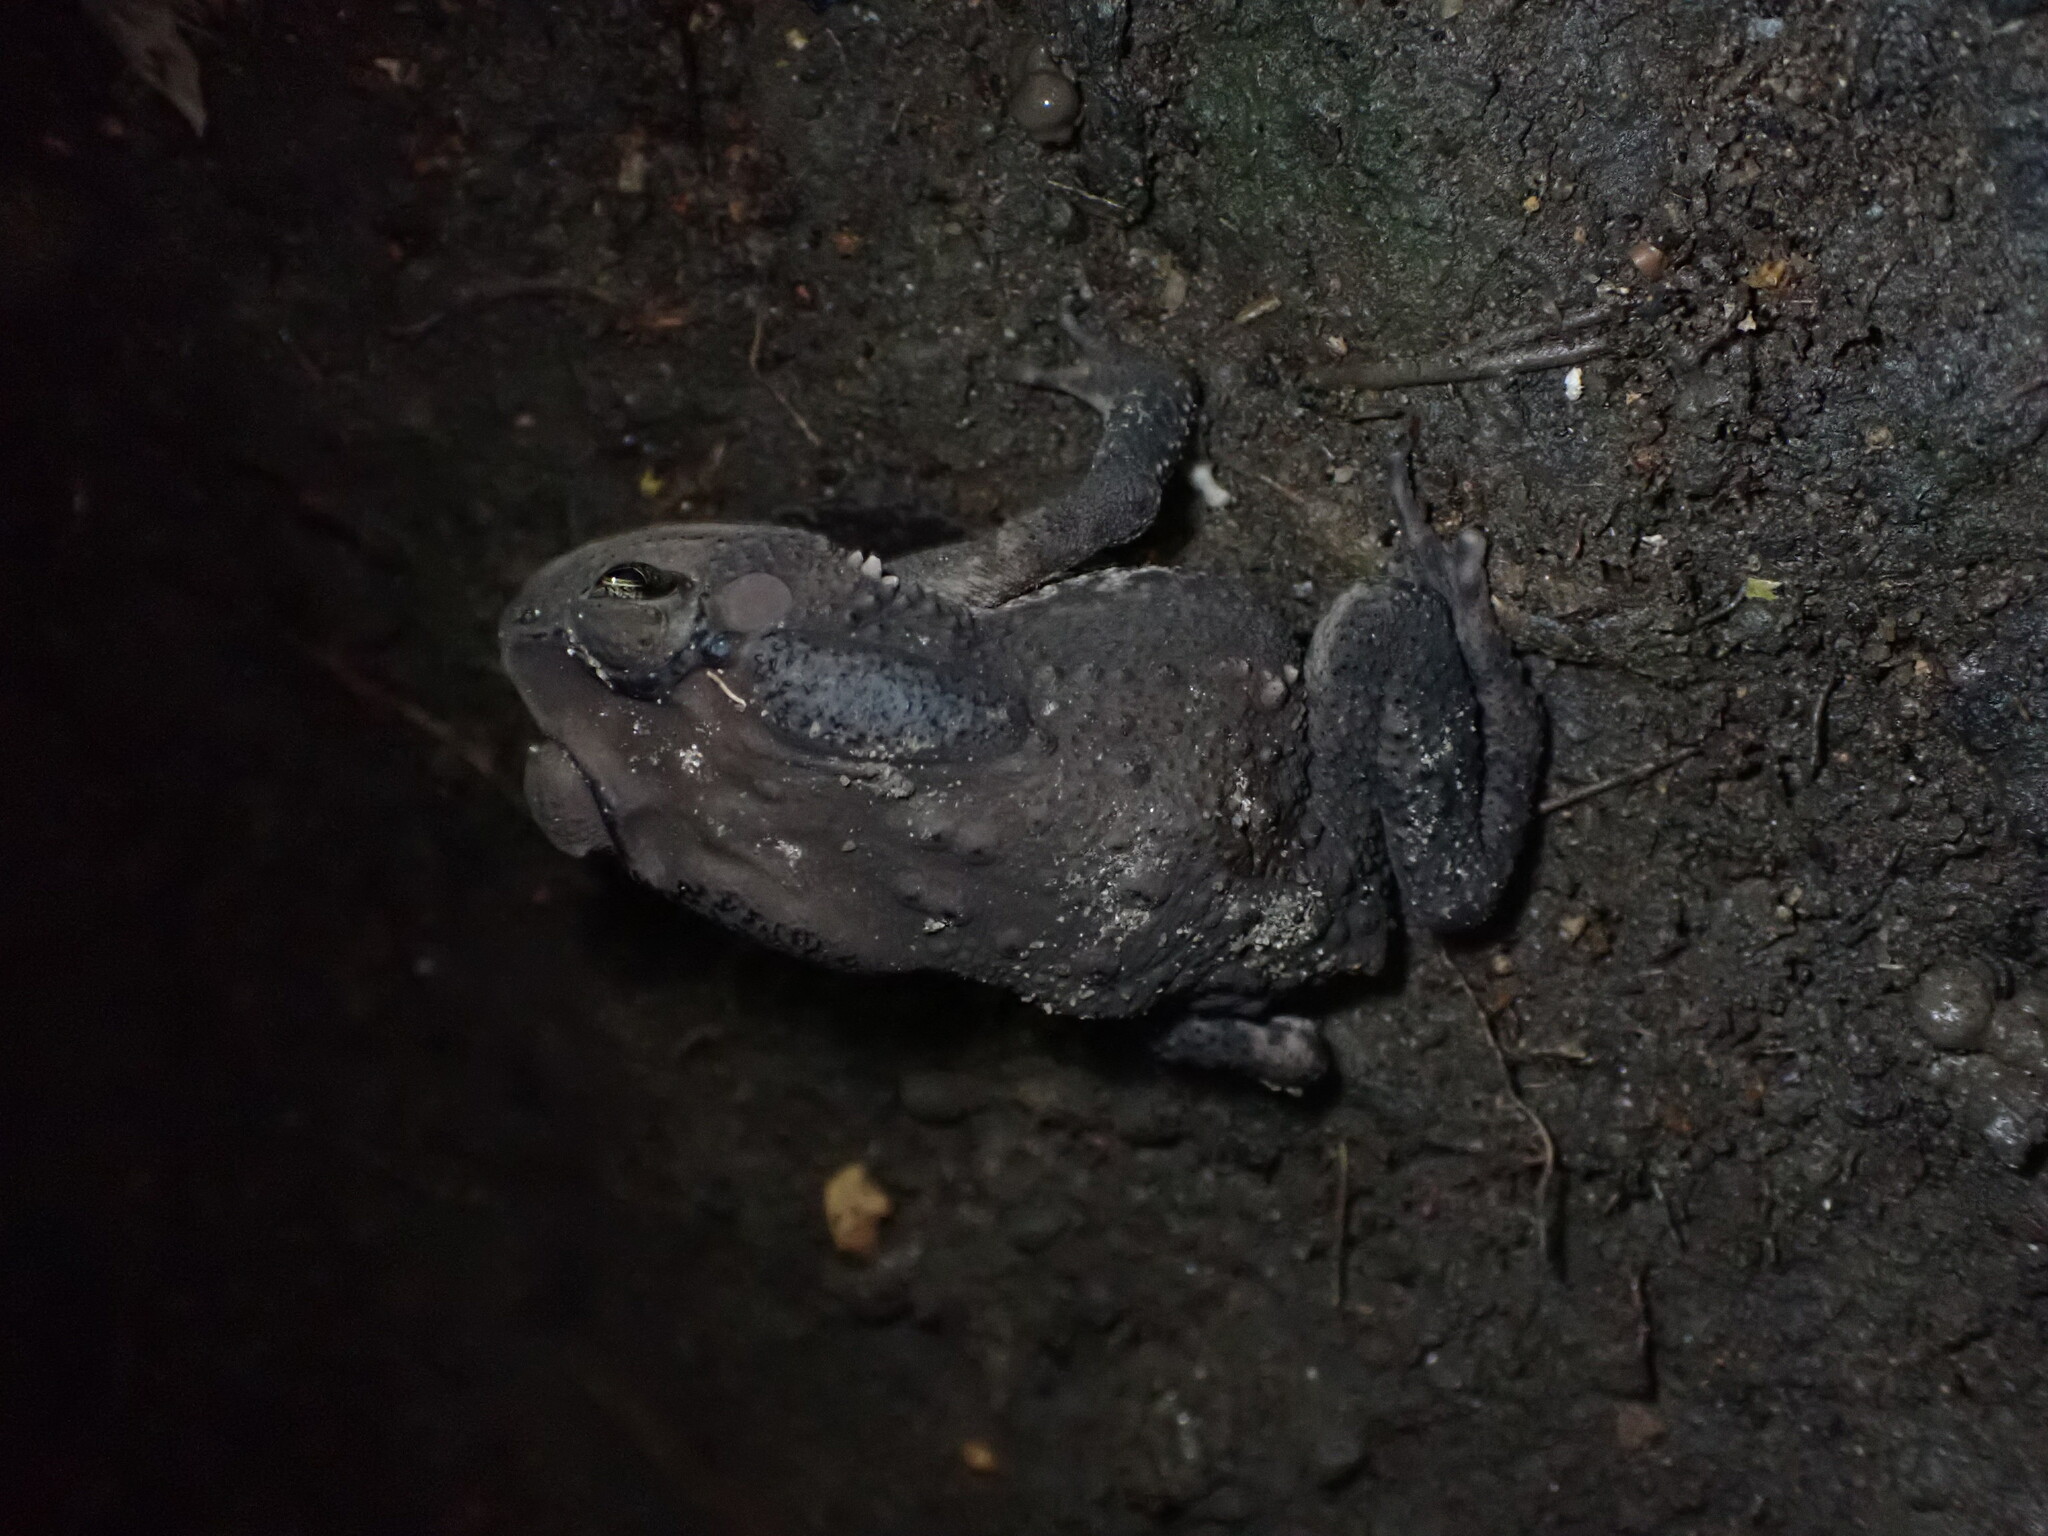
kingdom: Animalia
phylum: Chordata
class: Amphibia
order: Anura
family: Bufonidae
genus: Duttaphrynus
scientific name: Duttaphrynus melanostictus
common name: Common sunda toad
